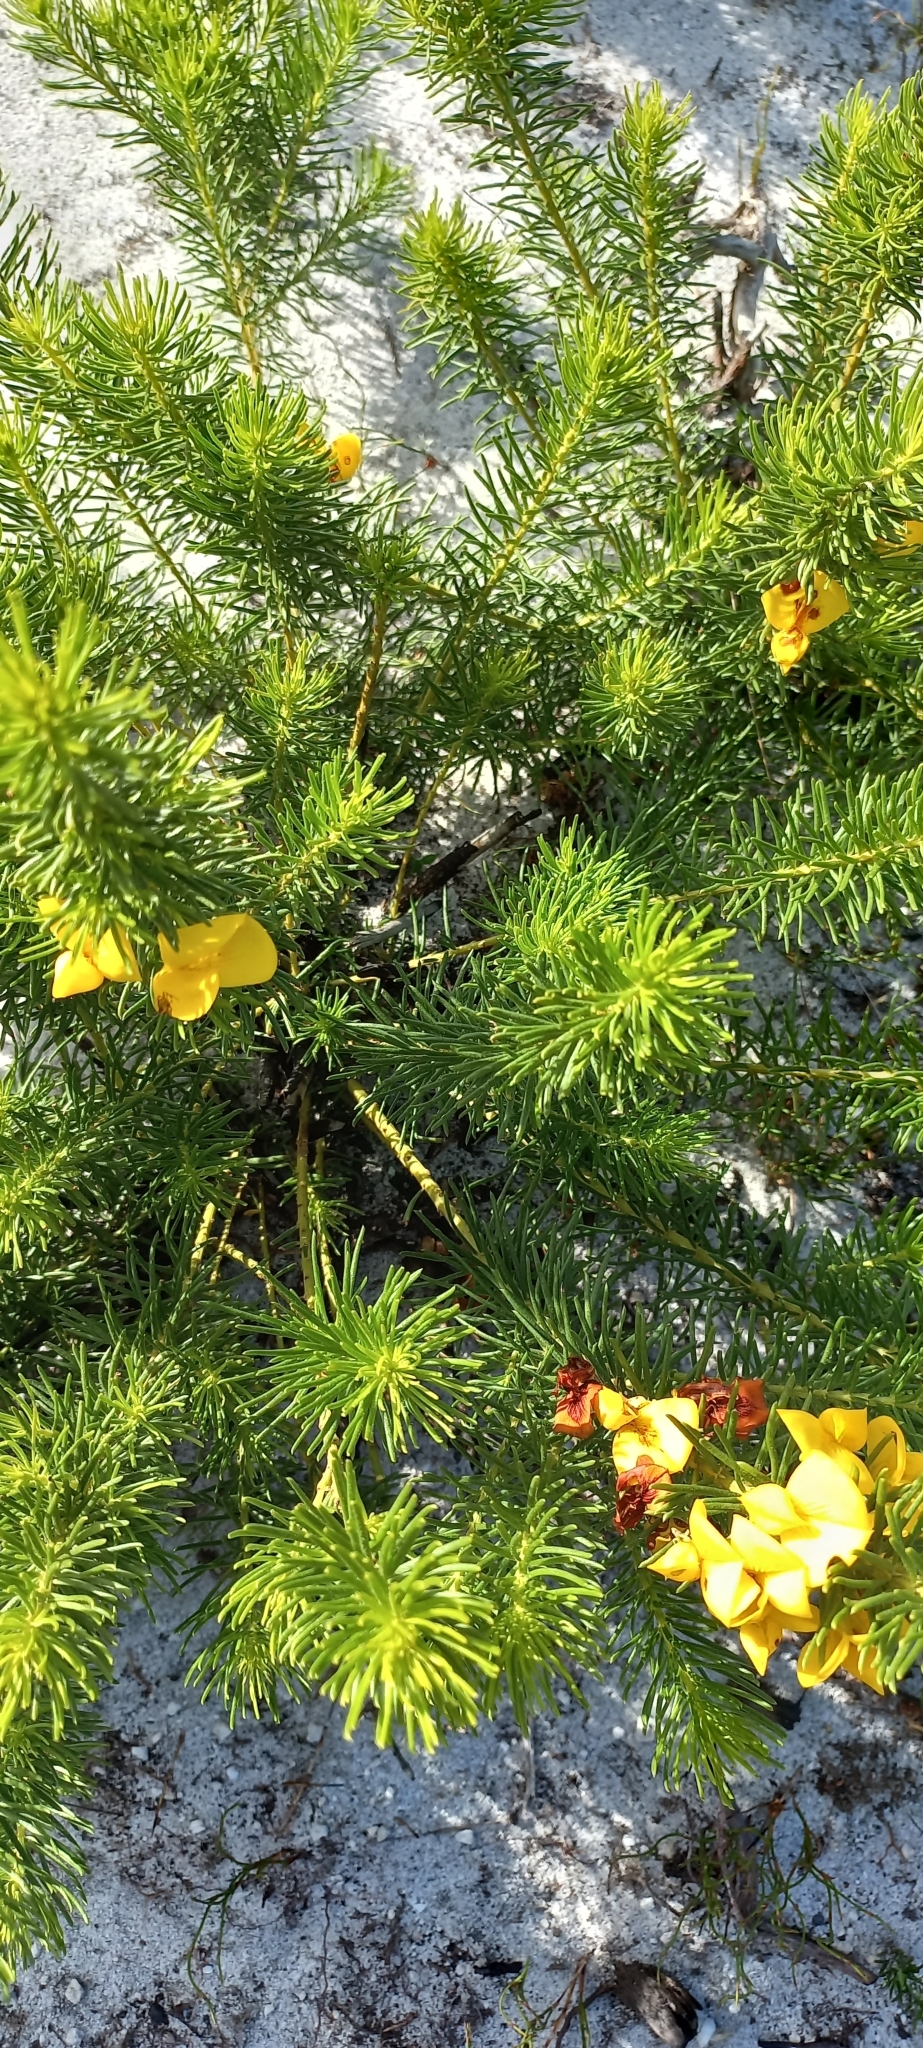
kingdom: Plantae
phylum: Tracheophyta
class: Magnoliopsida
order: Fabales
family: Fabaceae
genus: Cyclopia
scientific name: Cyclopia genistoides
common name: Honeybush tea
